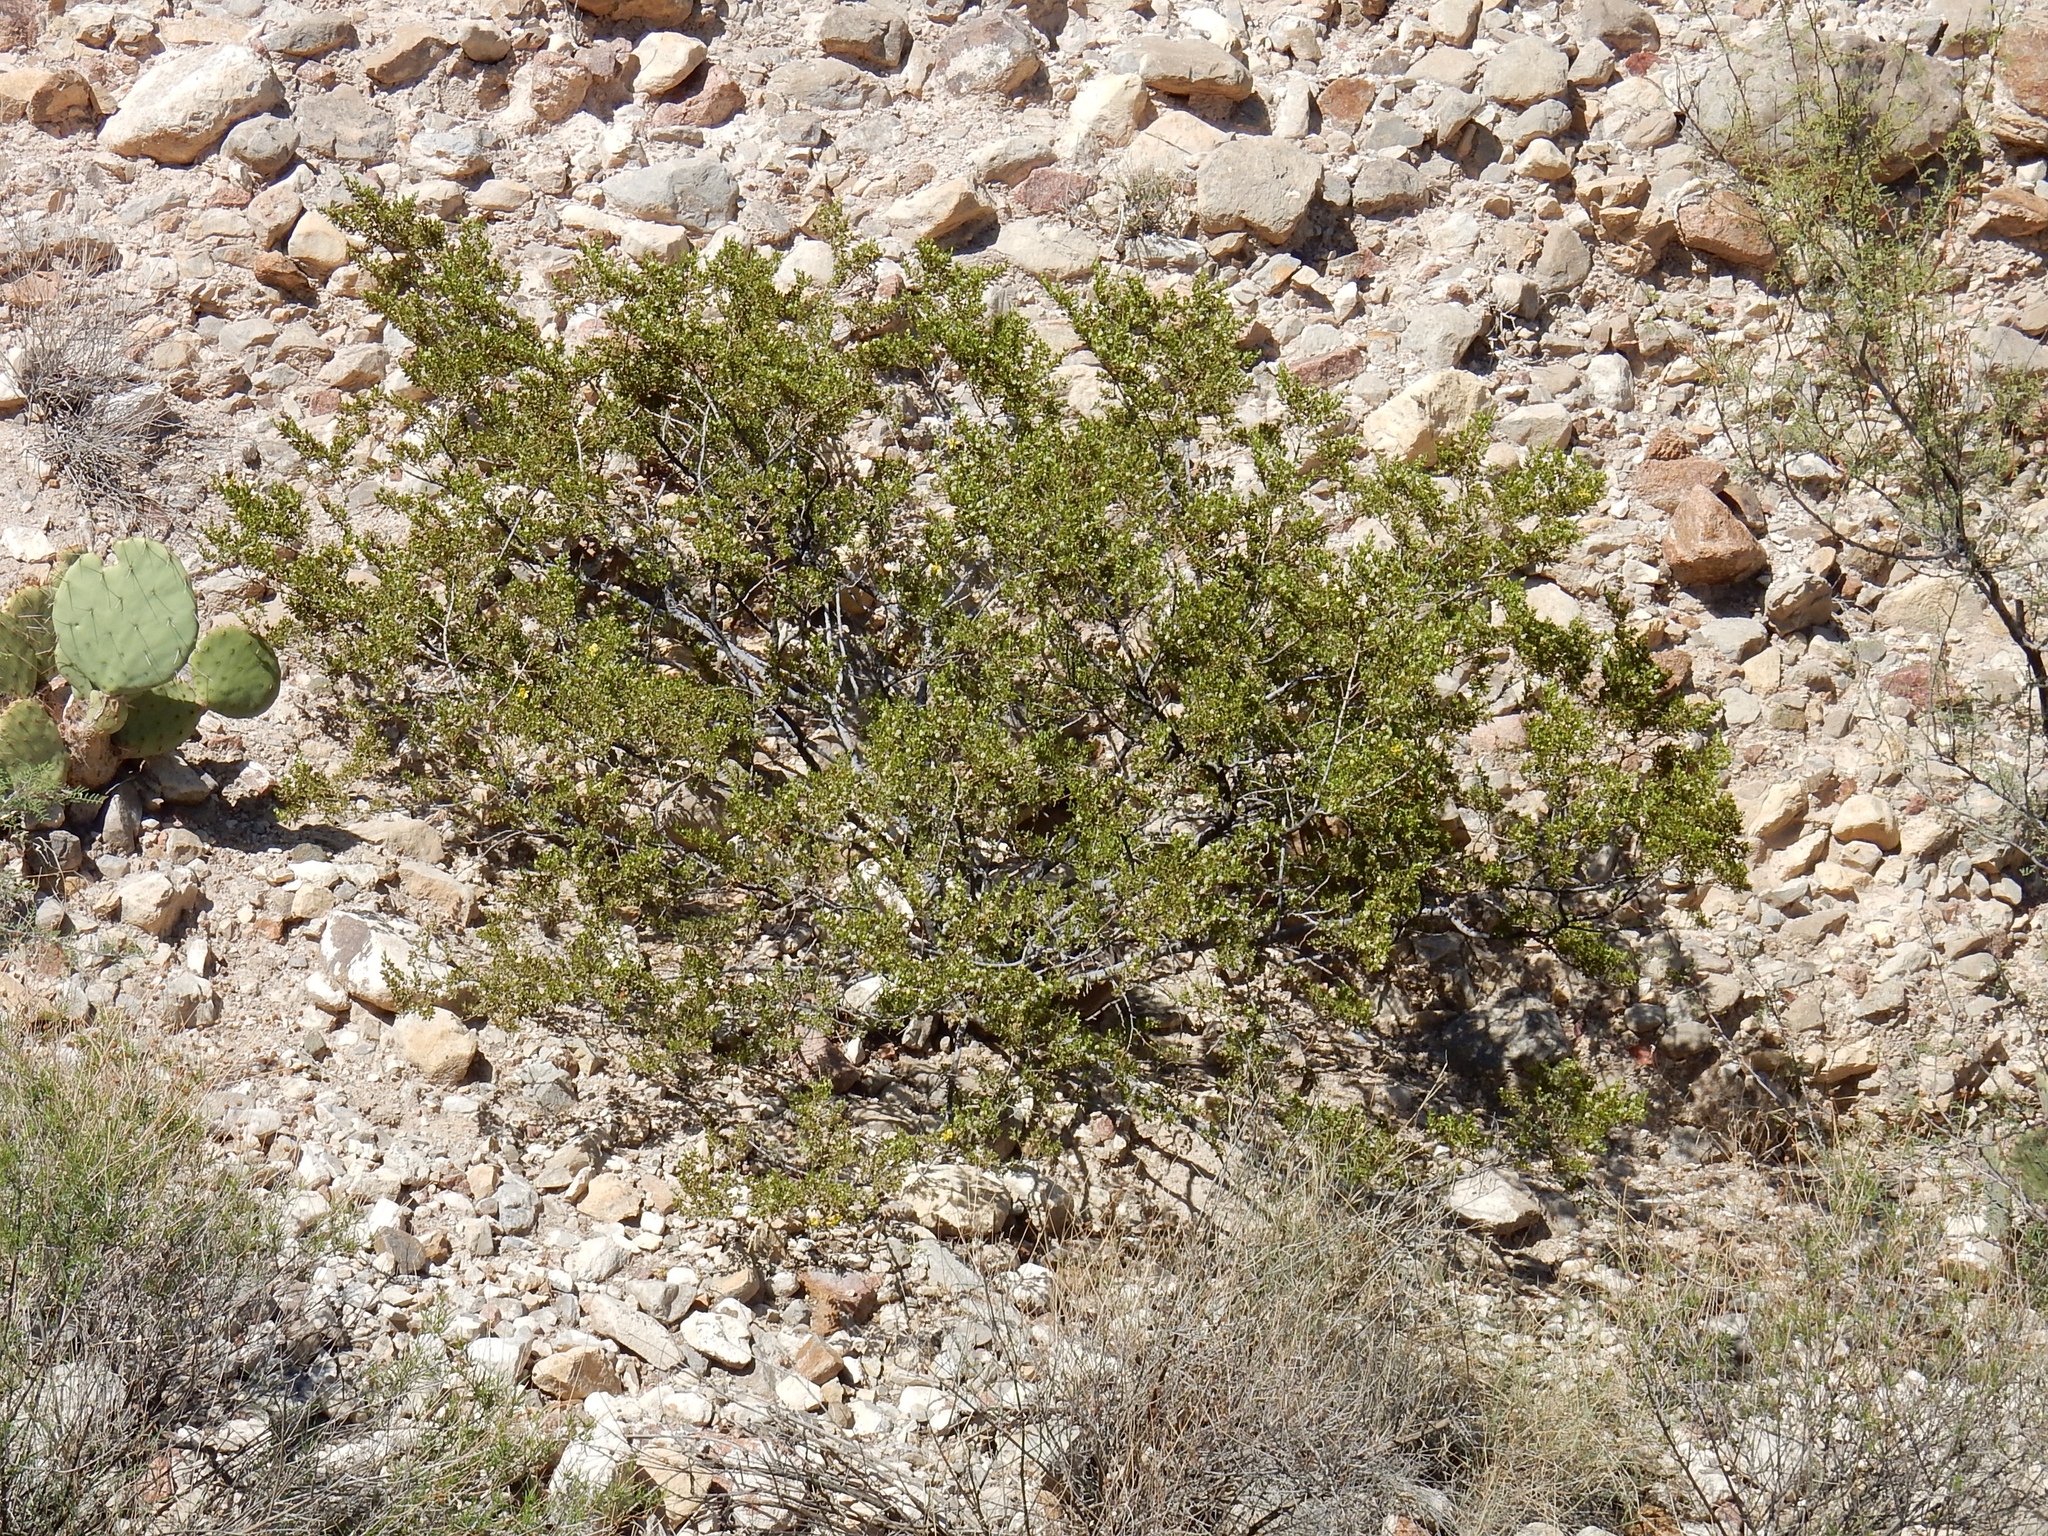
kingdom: Plantae
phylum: Tracheophyta
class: Magnoliopsida
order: Zygophyllales
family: Zygophyllaceae
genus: Larrea
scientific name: Larrea tridentata
